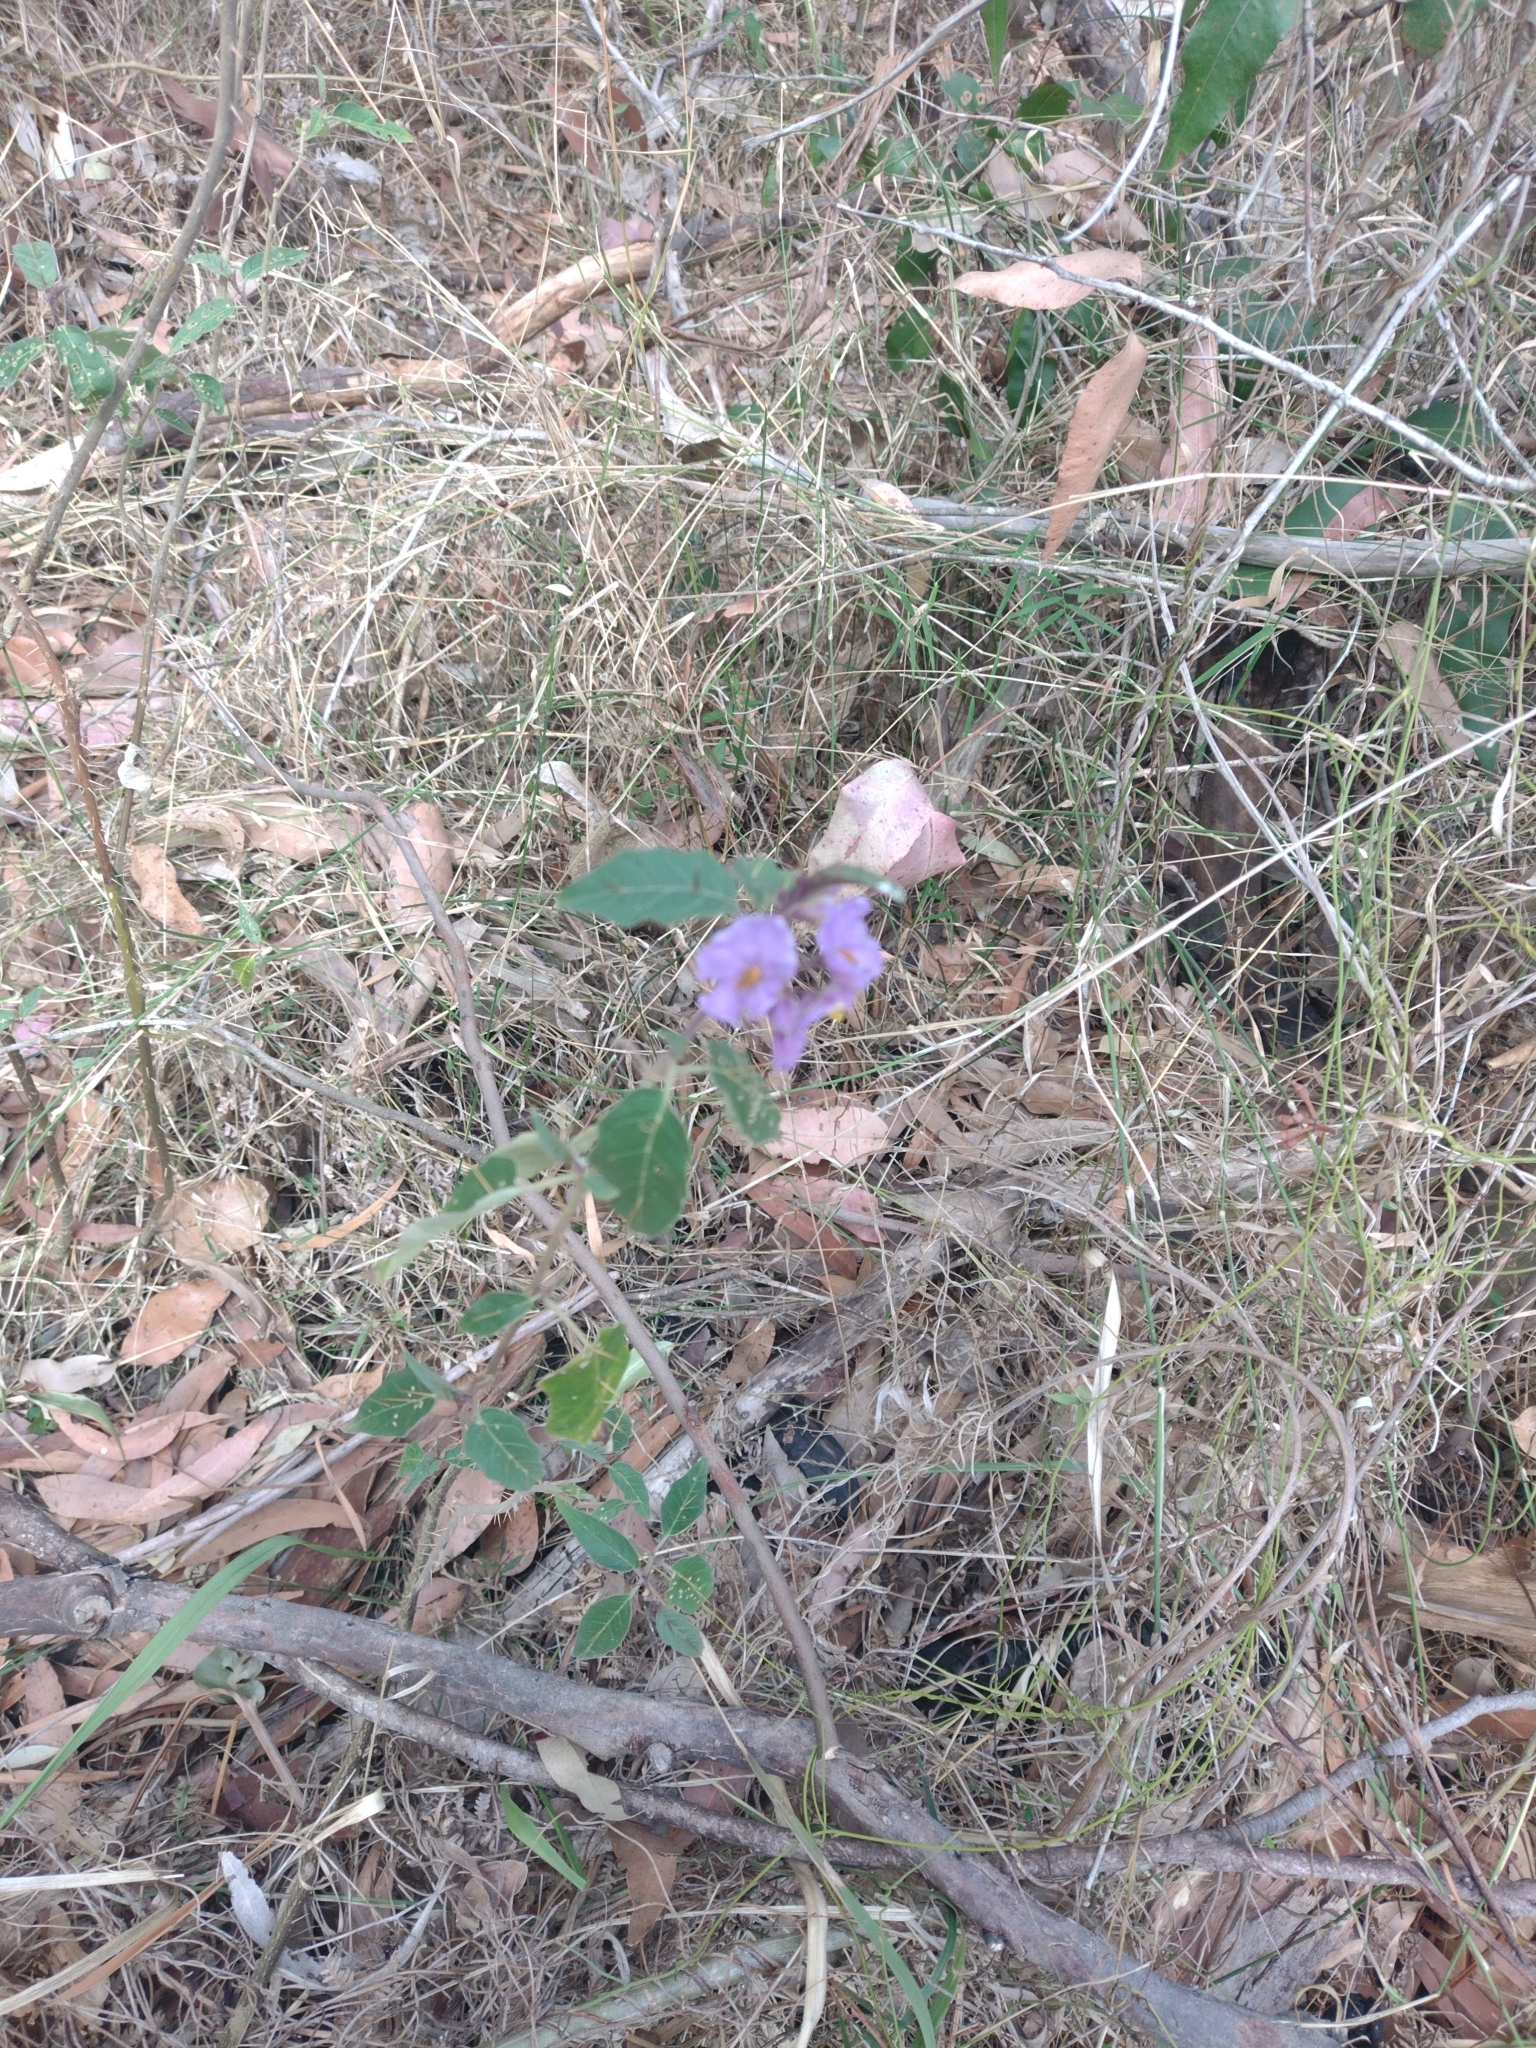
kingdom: Plantae
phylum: Tracheophyta
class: Magnoliopsida
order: Solanales
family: Solanaceae
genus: Solanum
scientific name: Solanum silvestre
